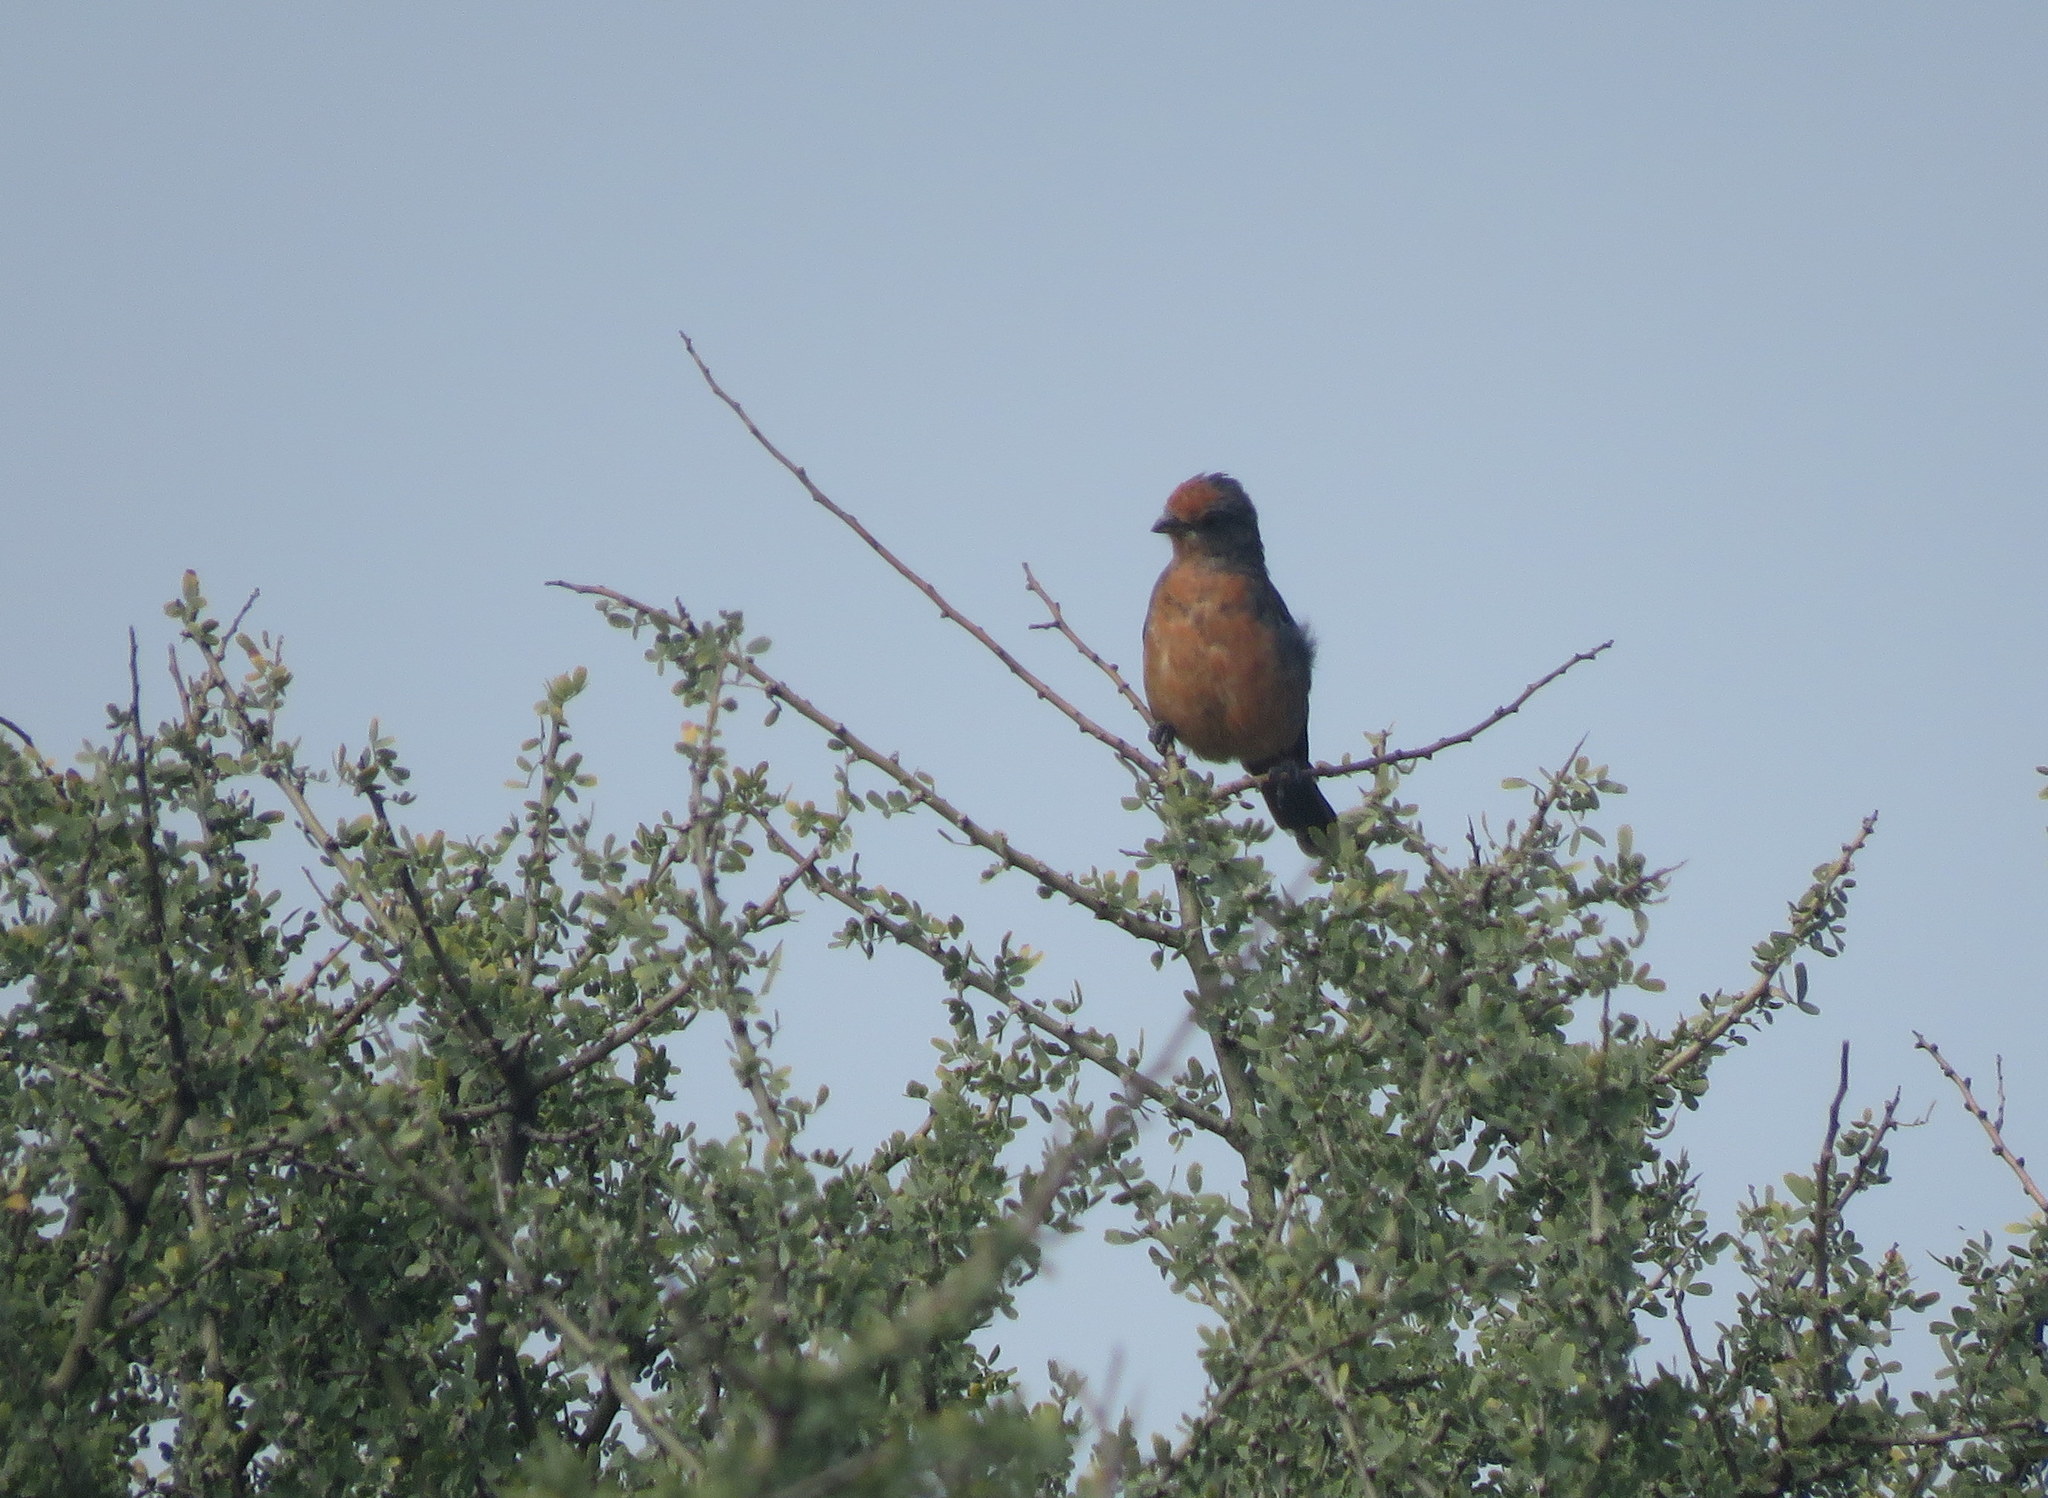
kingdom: Animalia
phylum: Chordata
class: Aves
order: Passeriformes
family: Cotingidae
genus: Phytotoma
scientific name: Phytotoma rutila
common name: White-tipped plantcutter
